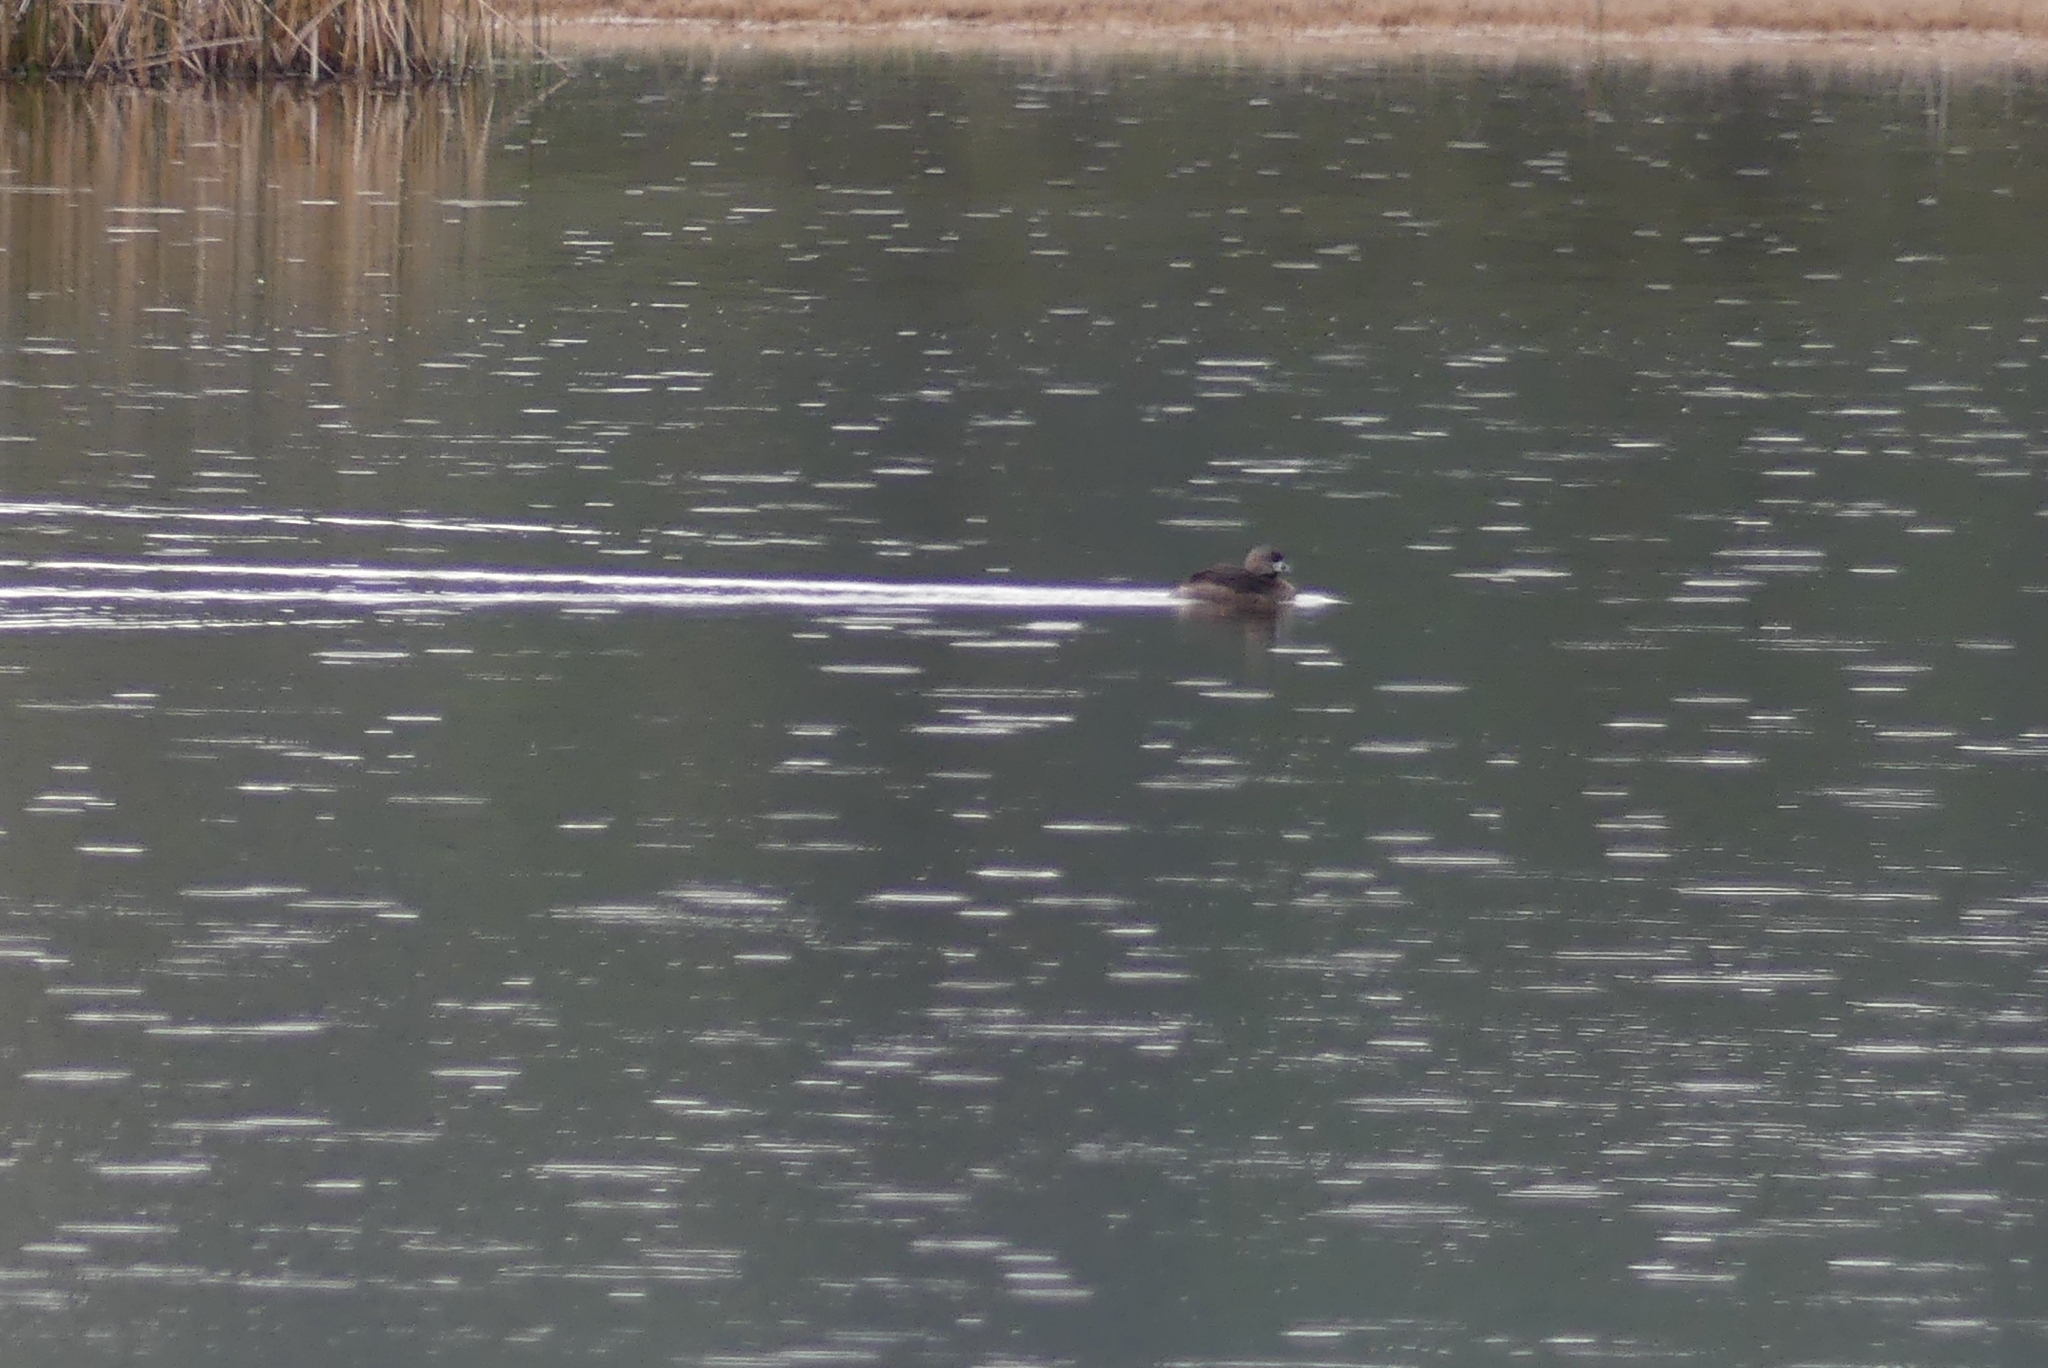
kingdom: Animalia
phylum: Chordata
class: Aves
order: Podicipediformes
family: Podicipedidae
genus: Podilymbus
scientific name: Podilymbus podiceps
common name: Pied-billed grebe
